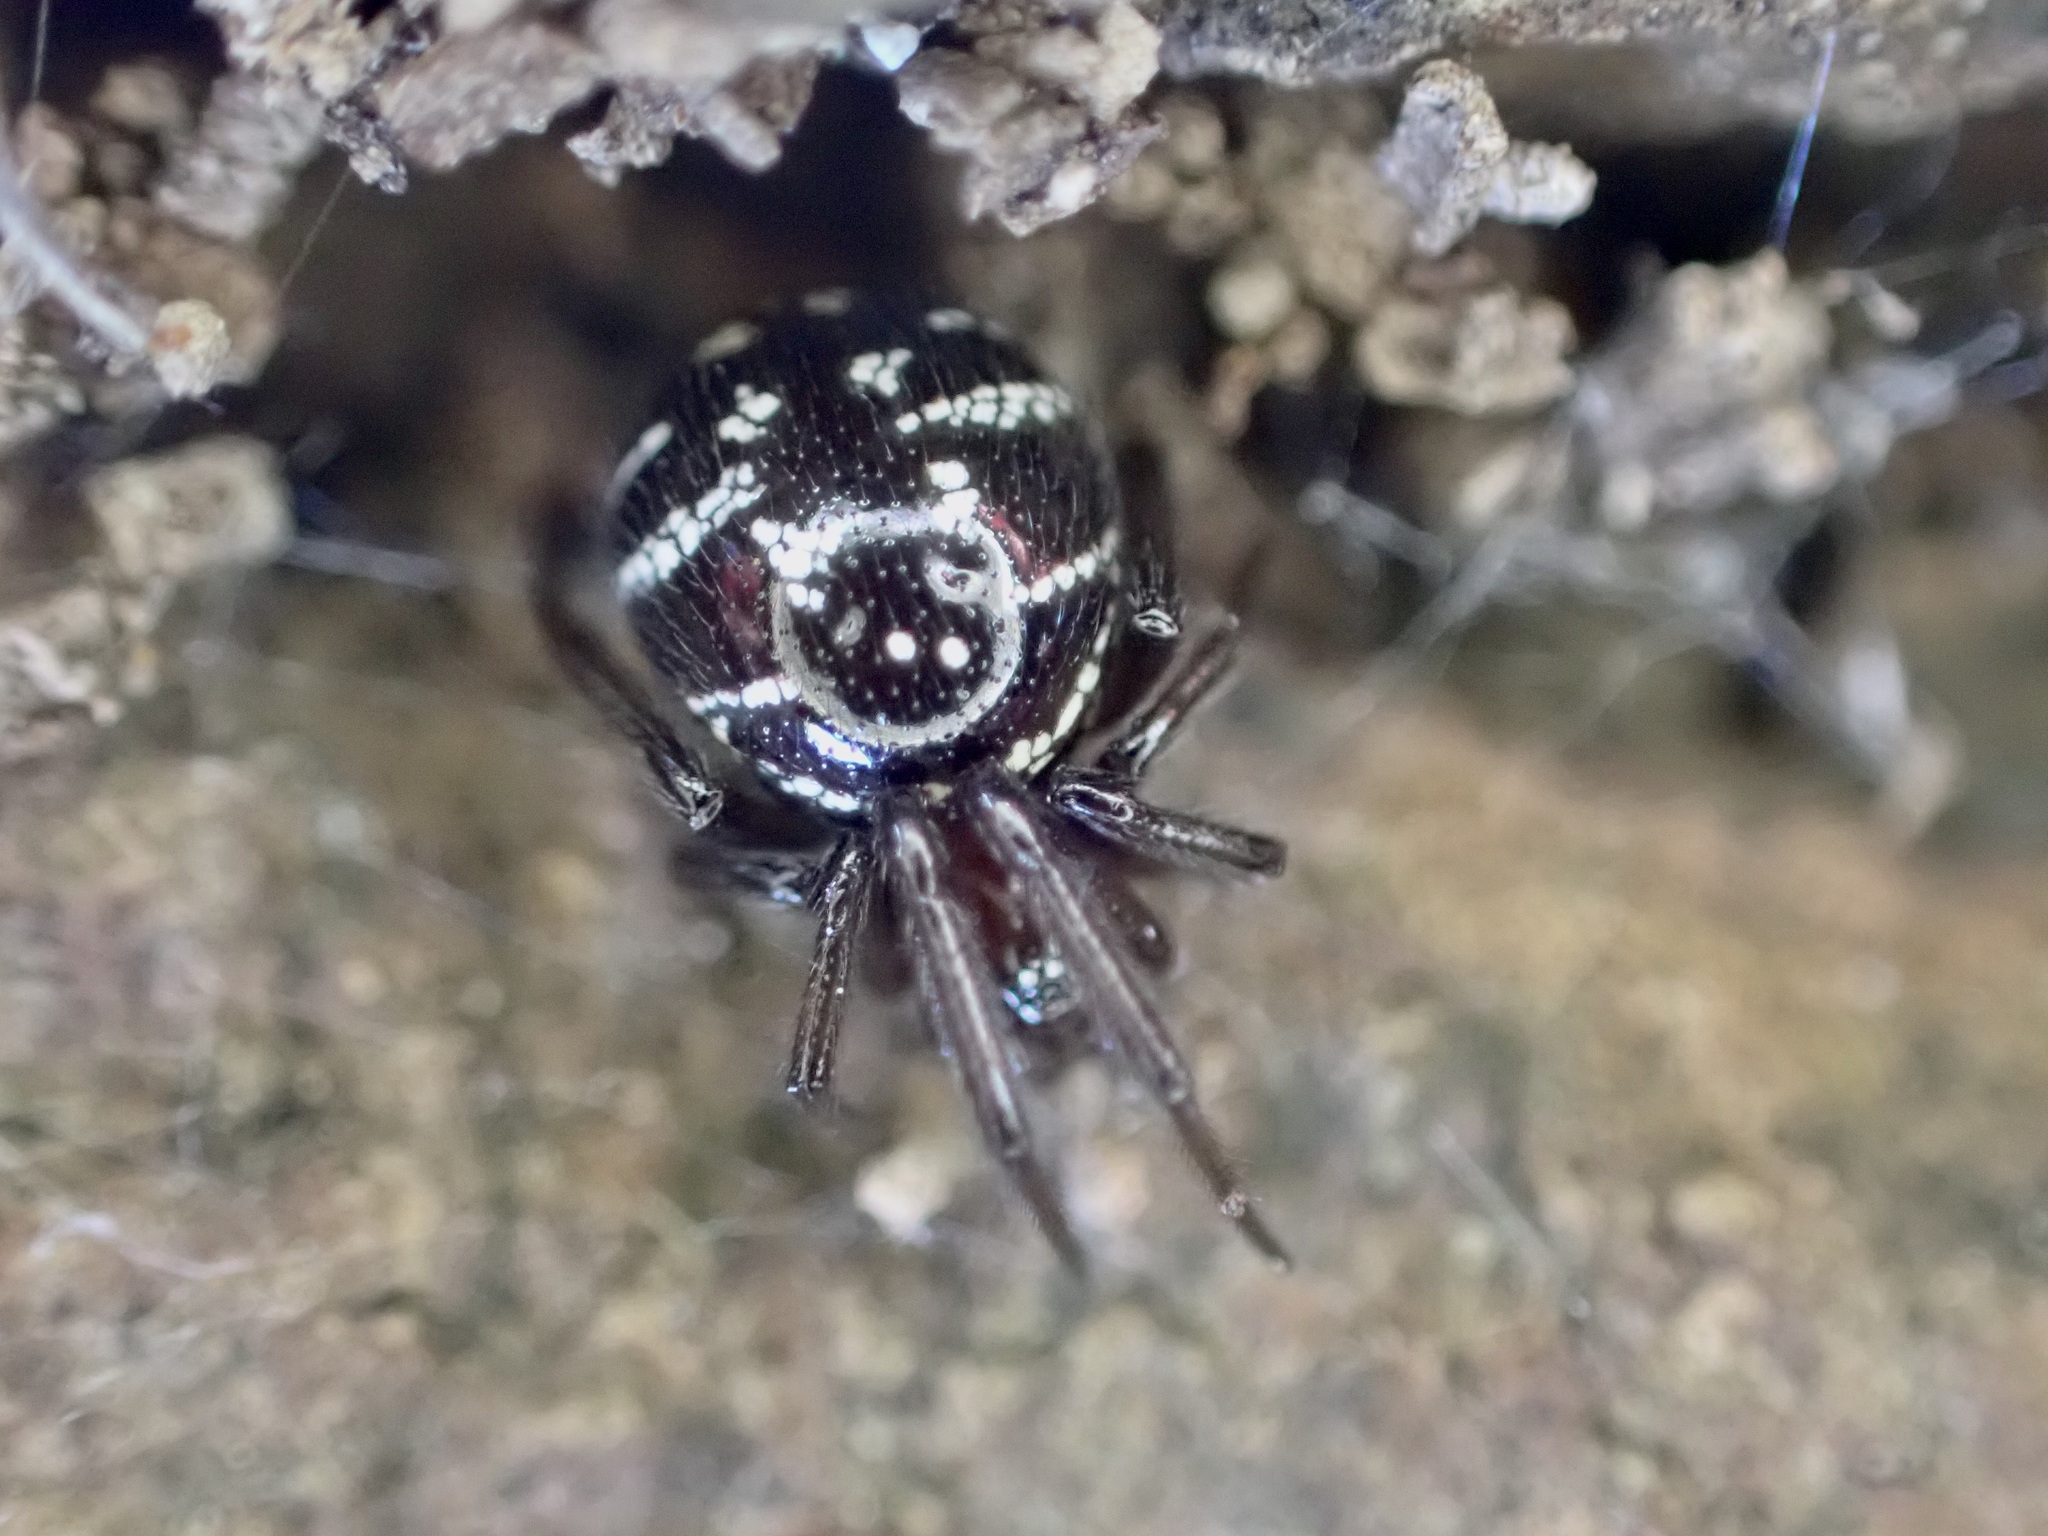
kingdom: Animalia
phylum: Arthropoda
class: Arachnida
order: Araneae
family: Theridiidae
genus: Steatoda
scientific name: Steatoda capensis
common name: Cobweb weaver
